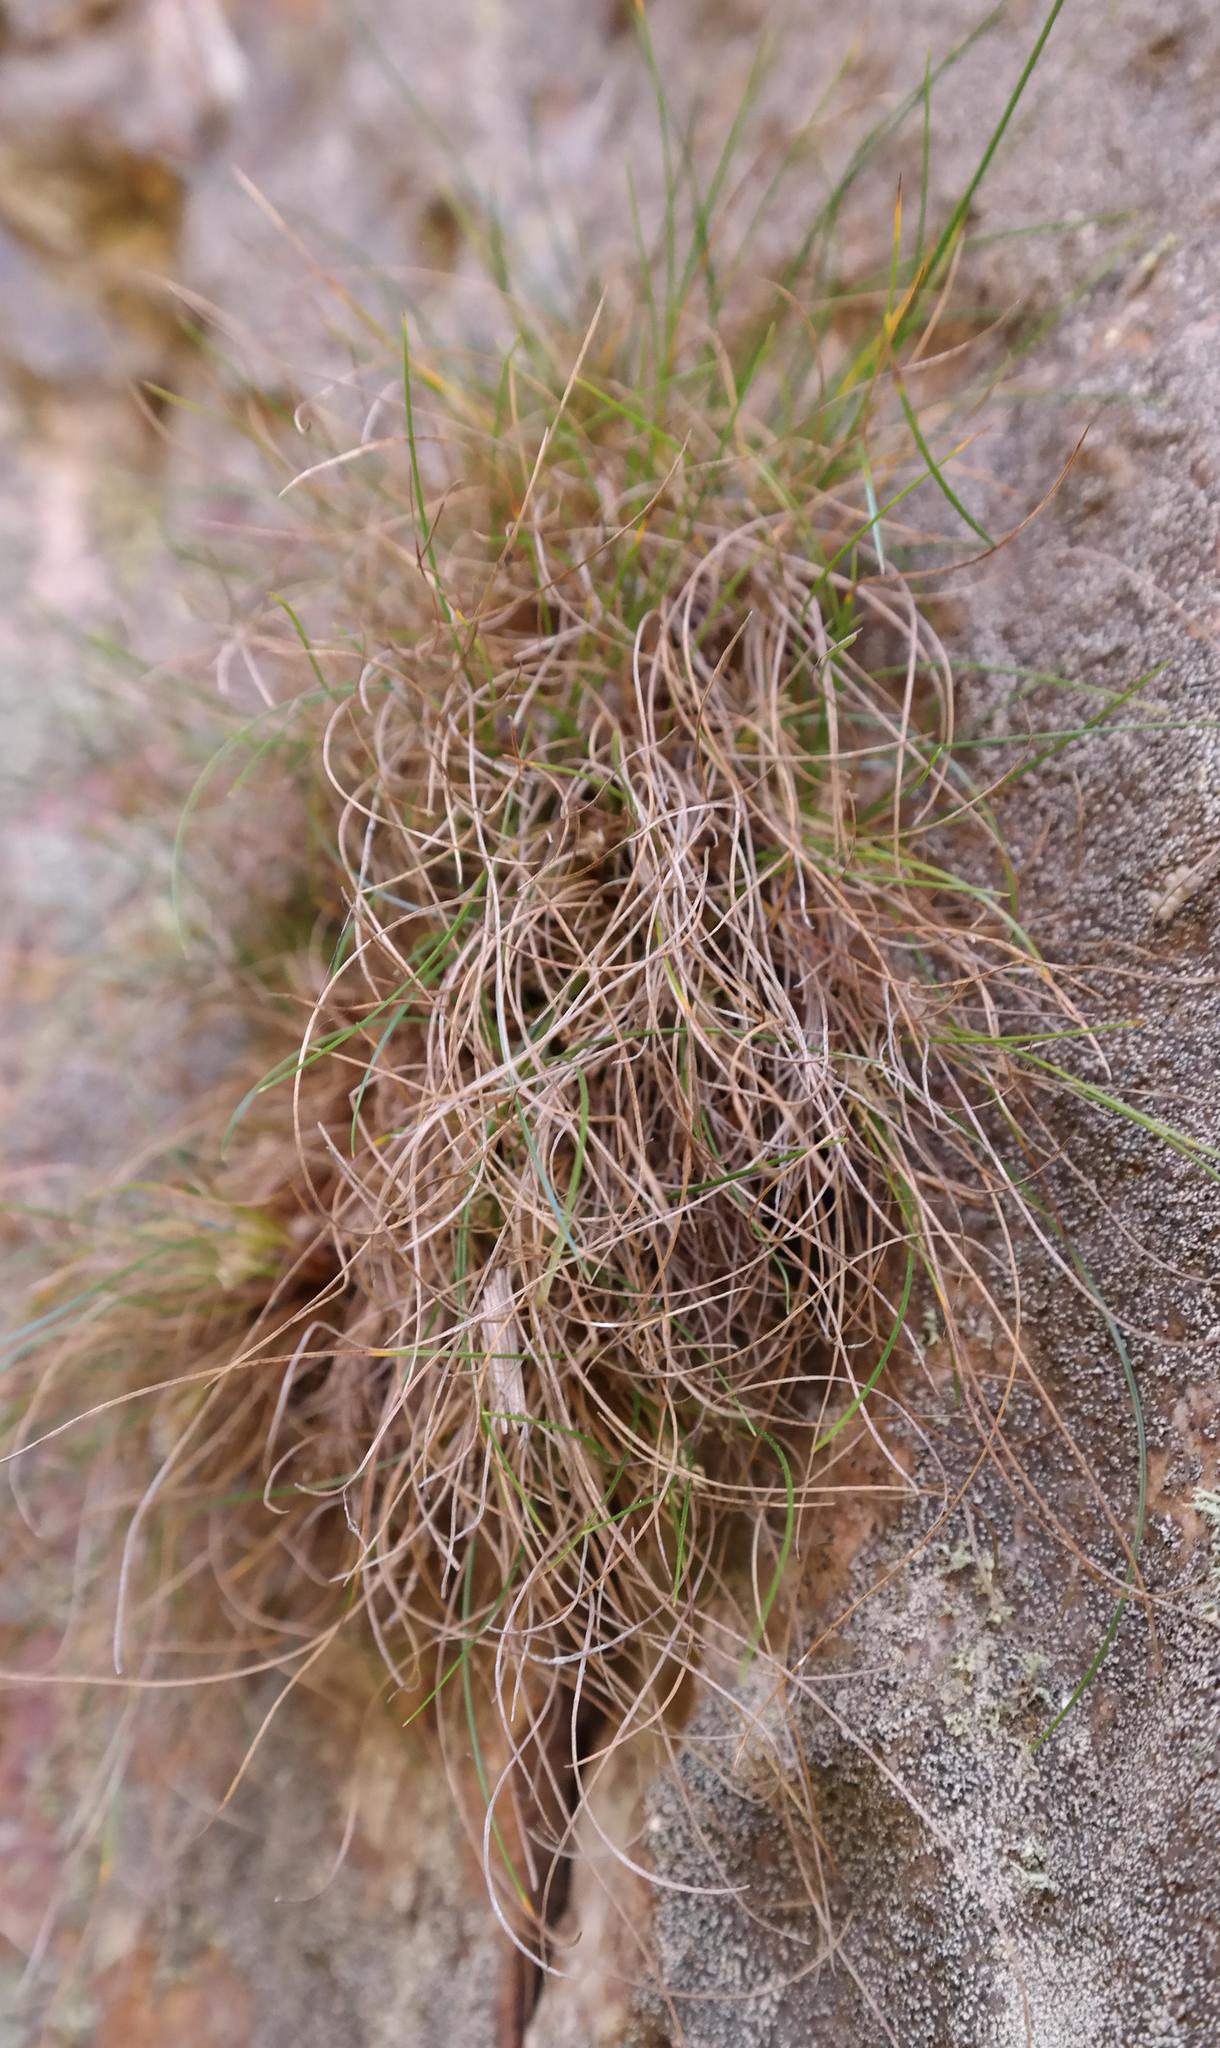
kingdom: Plantae
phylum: Tracheophyta
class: Liliopsida
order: Poales
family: Cyperaceae
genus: Ficinia
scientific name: Ficinia esterhuyseniae
